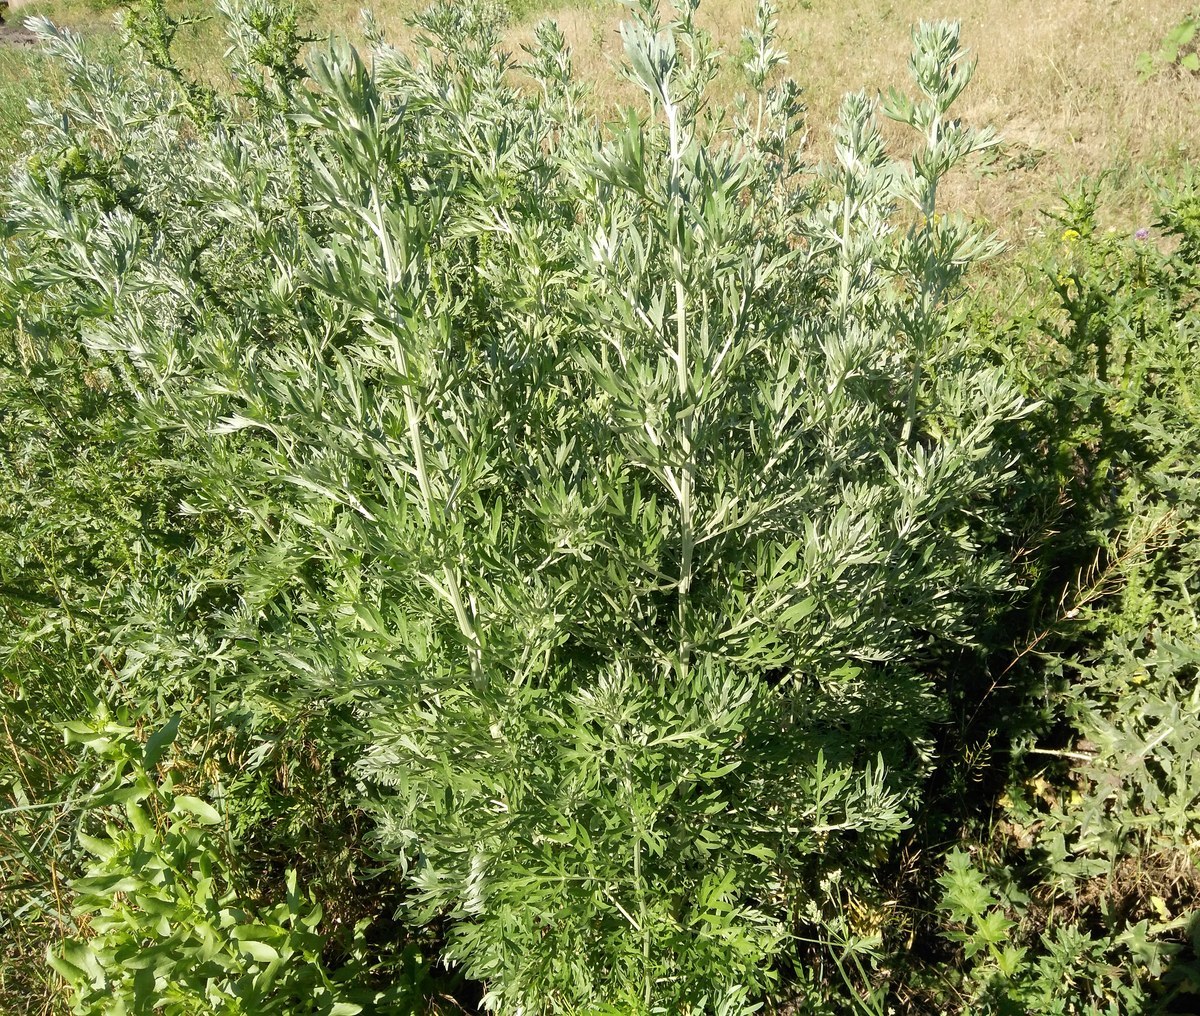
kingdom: Plantae
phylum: Tracheophyta
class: Magnoliopsida
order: Asterales
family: Asteraceae
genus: Artemisia
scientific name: Artemisia absinthium
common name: Wormwood
